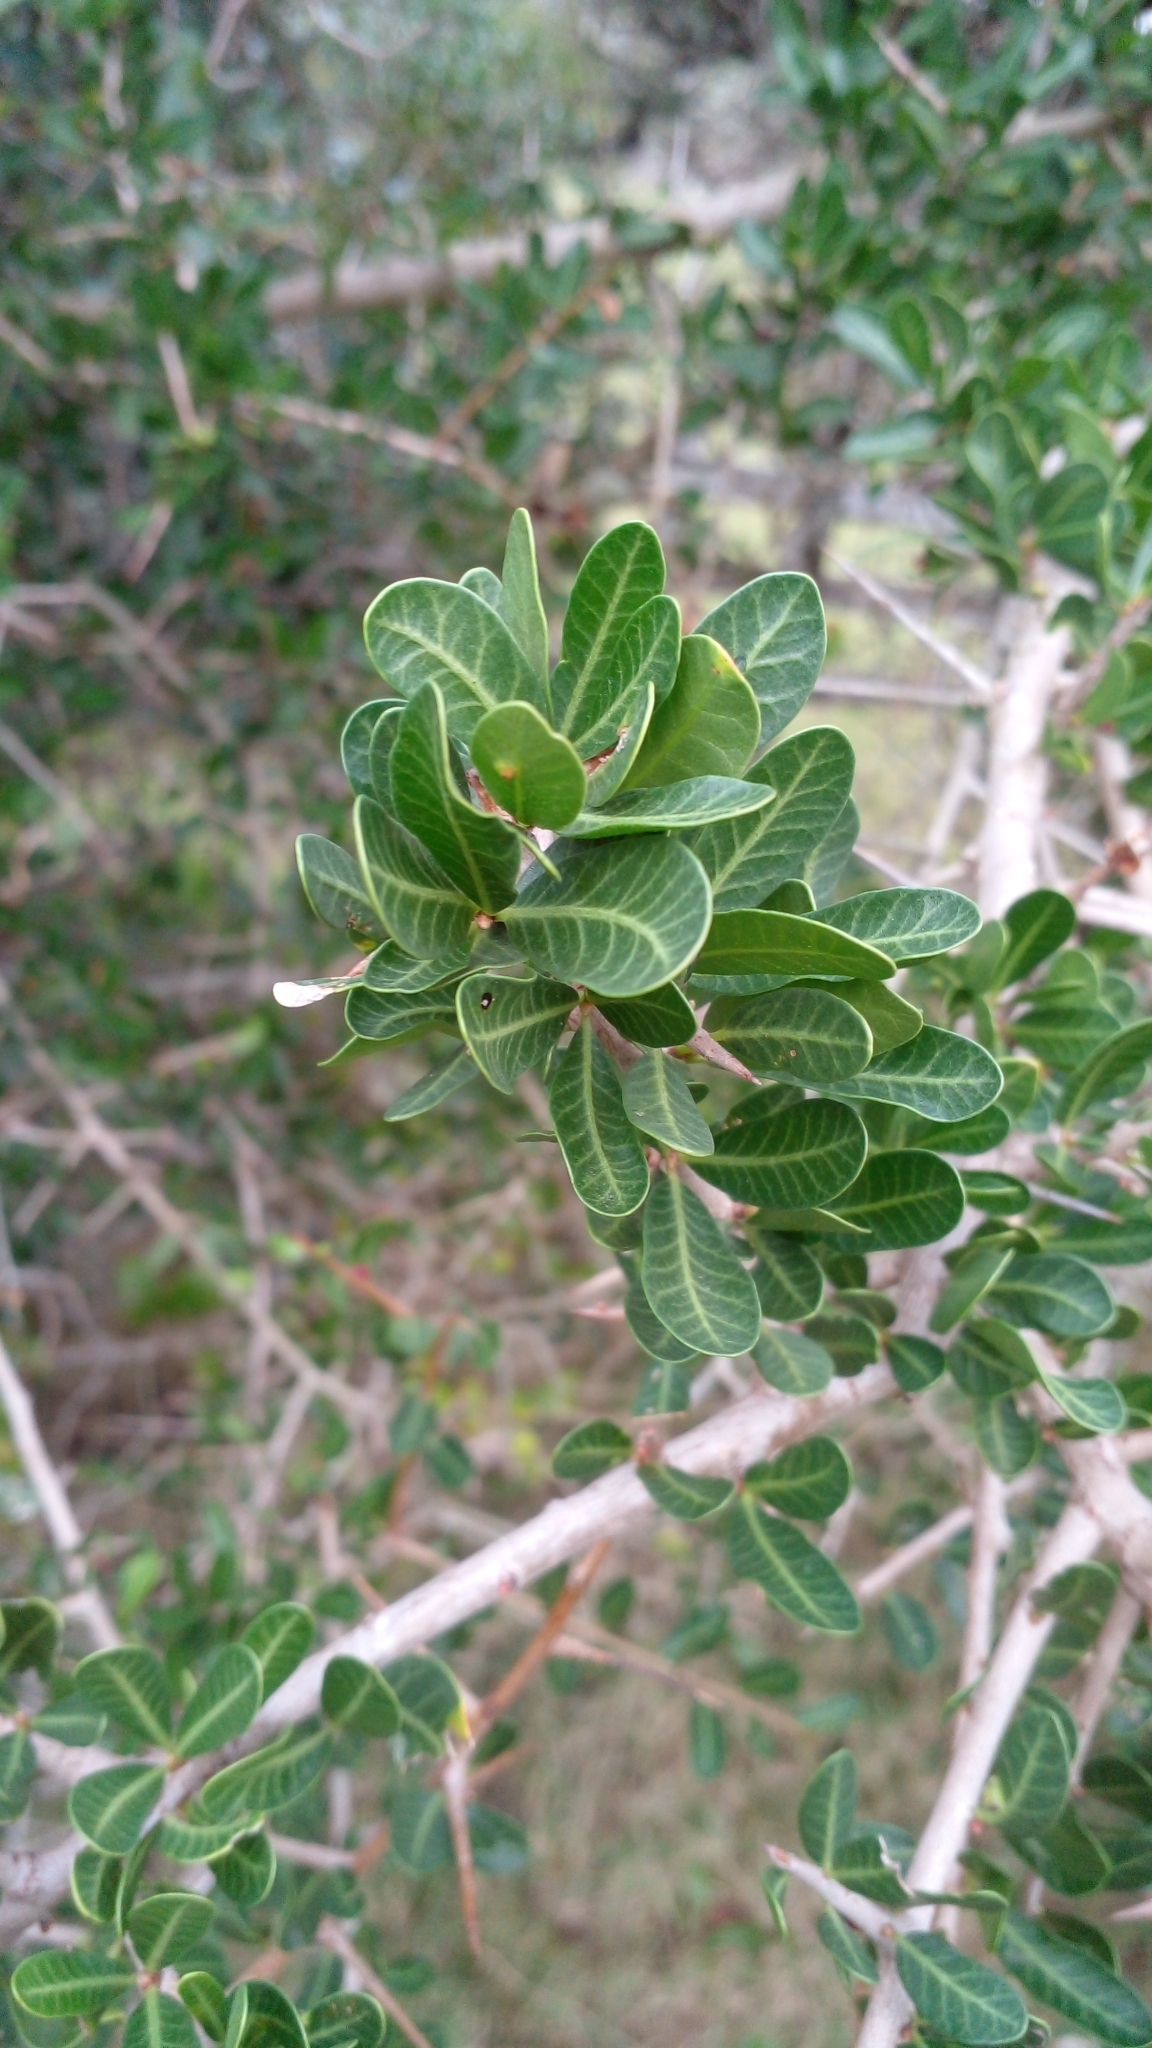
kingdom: Plantae
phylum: Tracheophyta
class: Magnoliopsida
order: Sapindales
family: Anacardiaceae
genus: Schinus
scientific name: Schinus engleri
